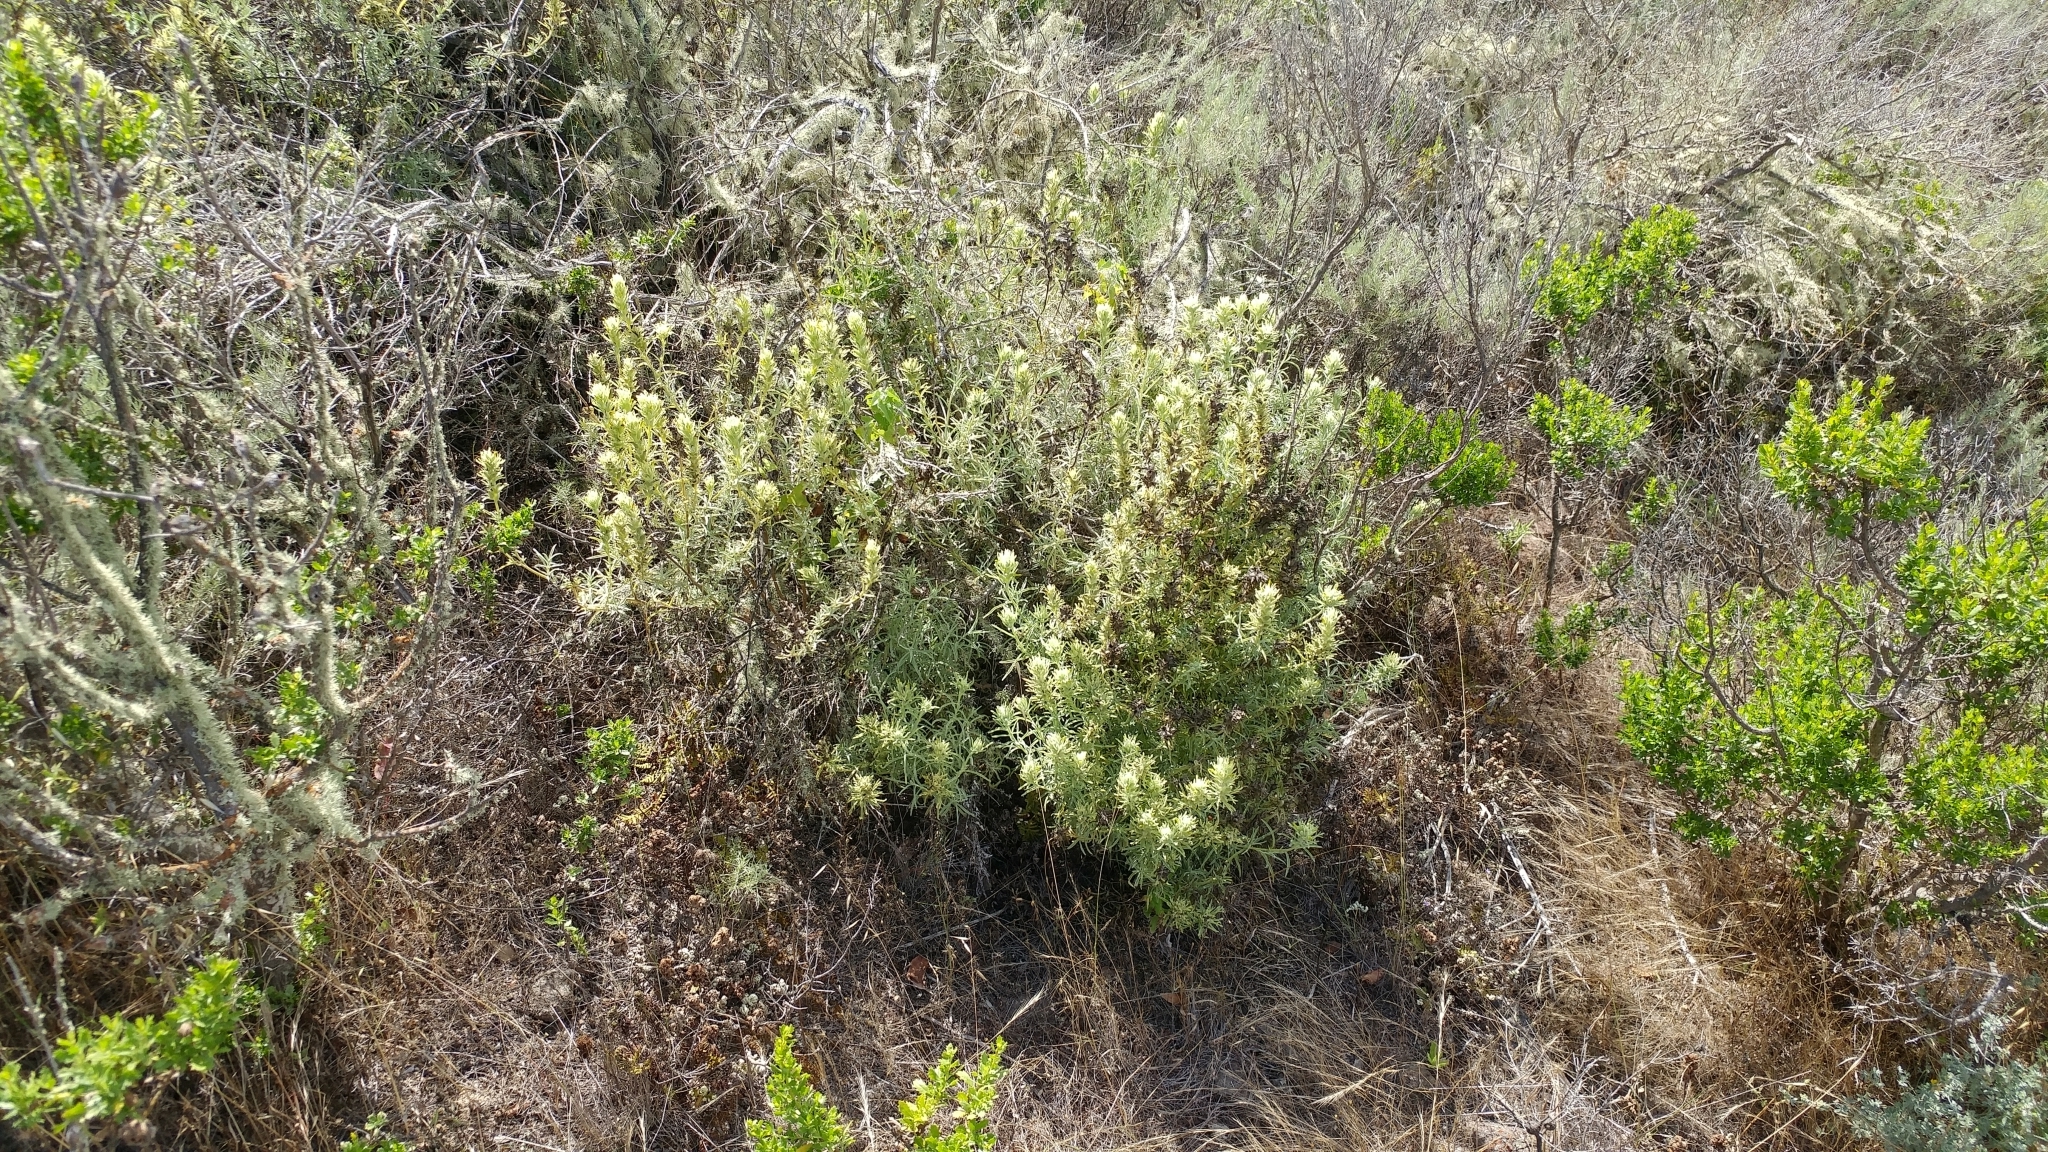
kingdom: Plantae
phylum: Tracheophyta
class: Magnoliopsida
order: Lamiales
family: Orobanchaceae
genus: Castilleja
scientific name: Castilleja grisea
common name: San clemente island indian paintbrush
